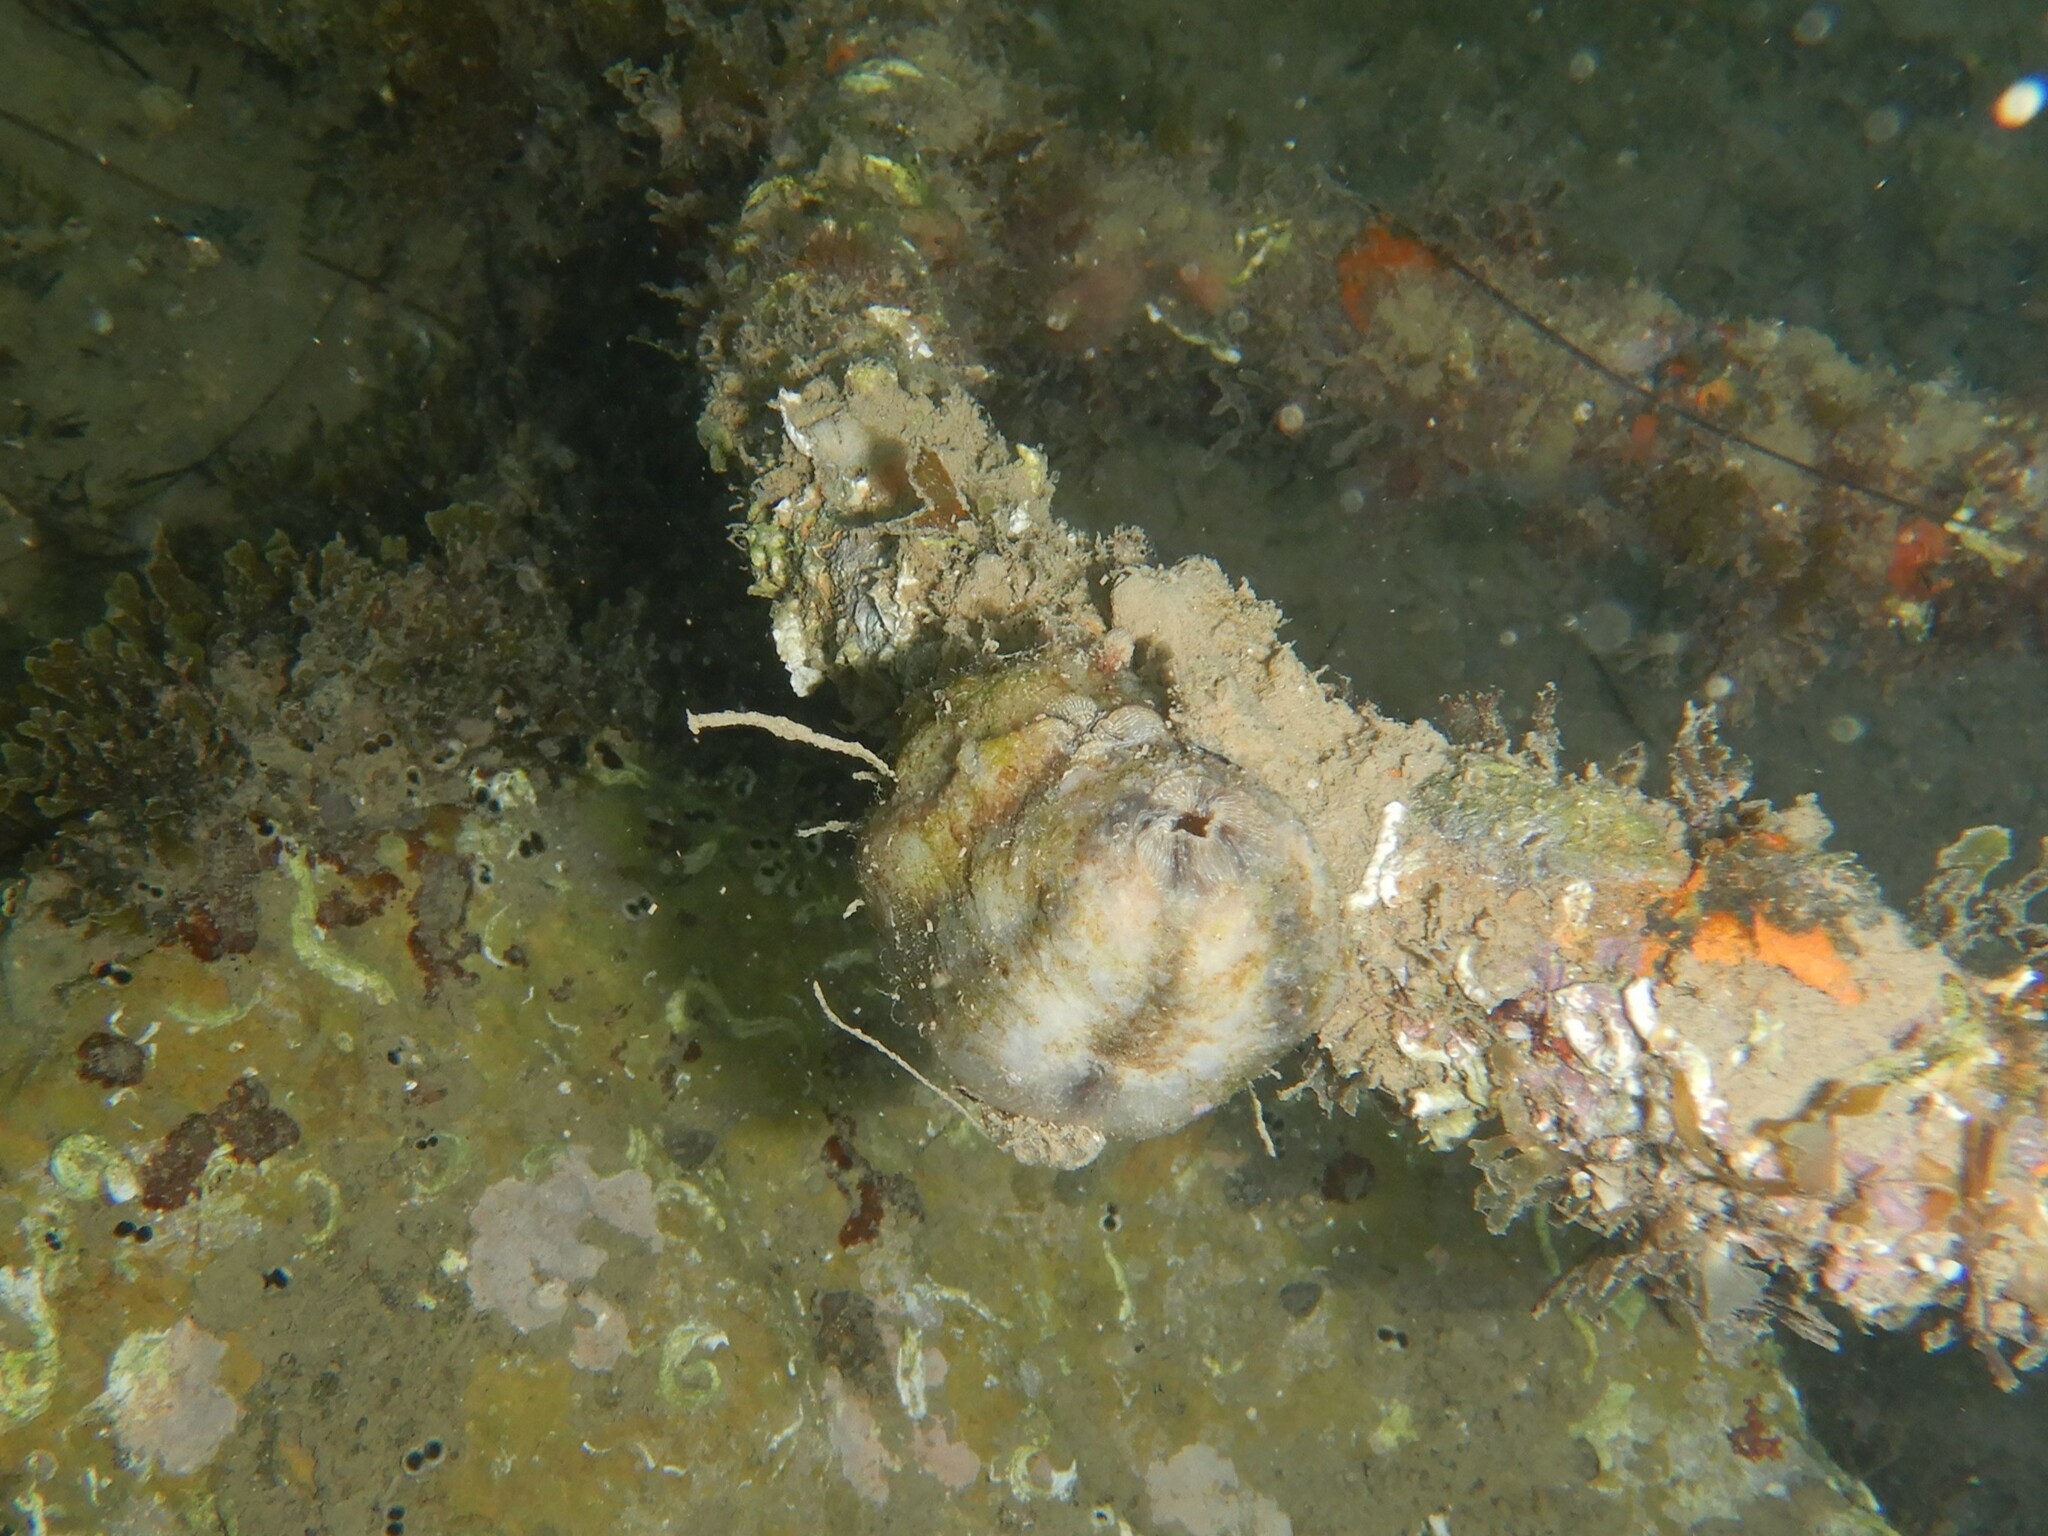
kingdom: Animalia
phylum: Chordata
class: Ascidiacea
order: Stolidobranchia
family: Styelidae
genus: Styela
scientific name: Styela plicata
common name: Pleated tunicate
